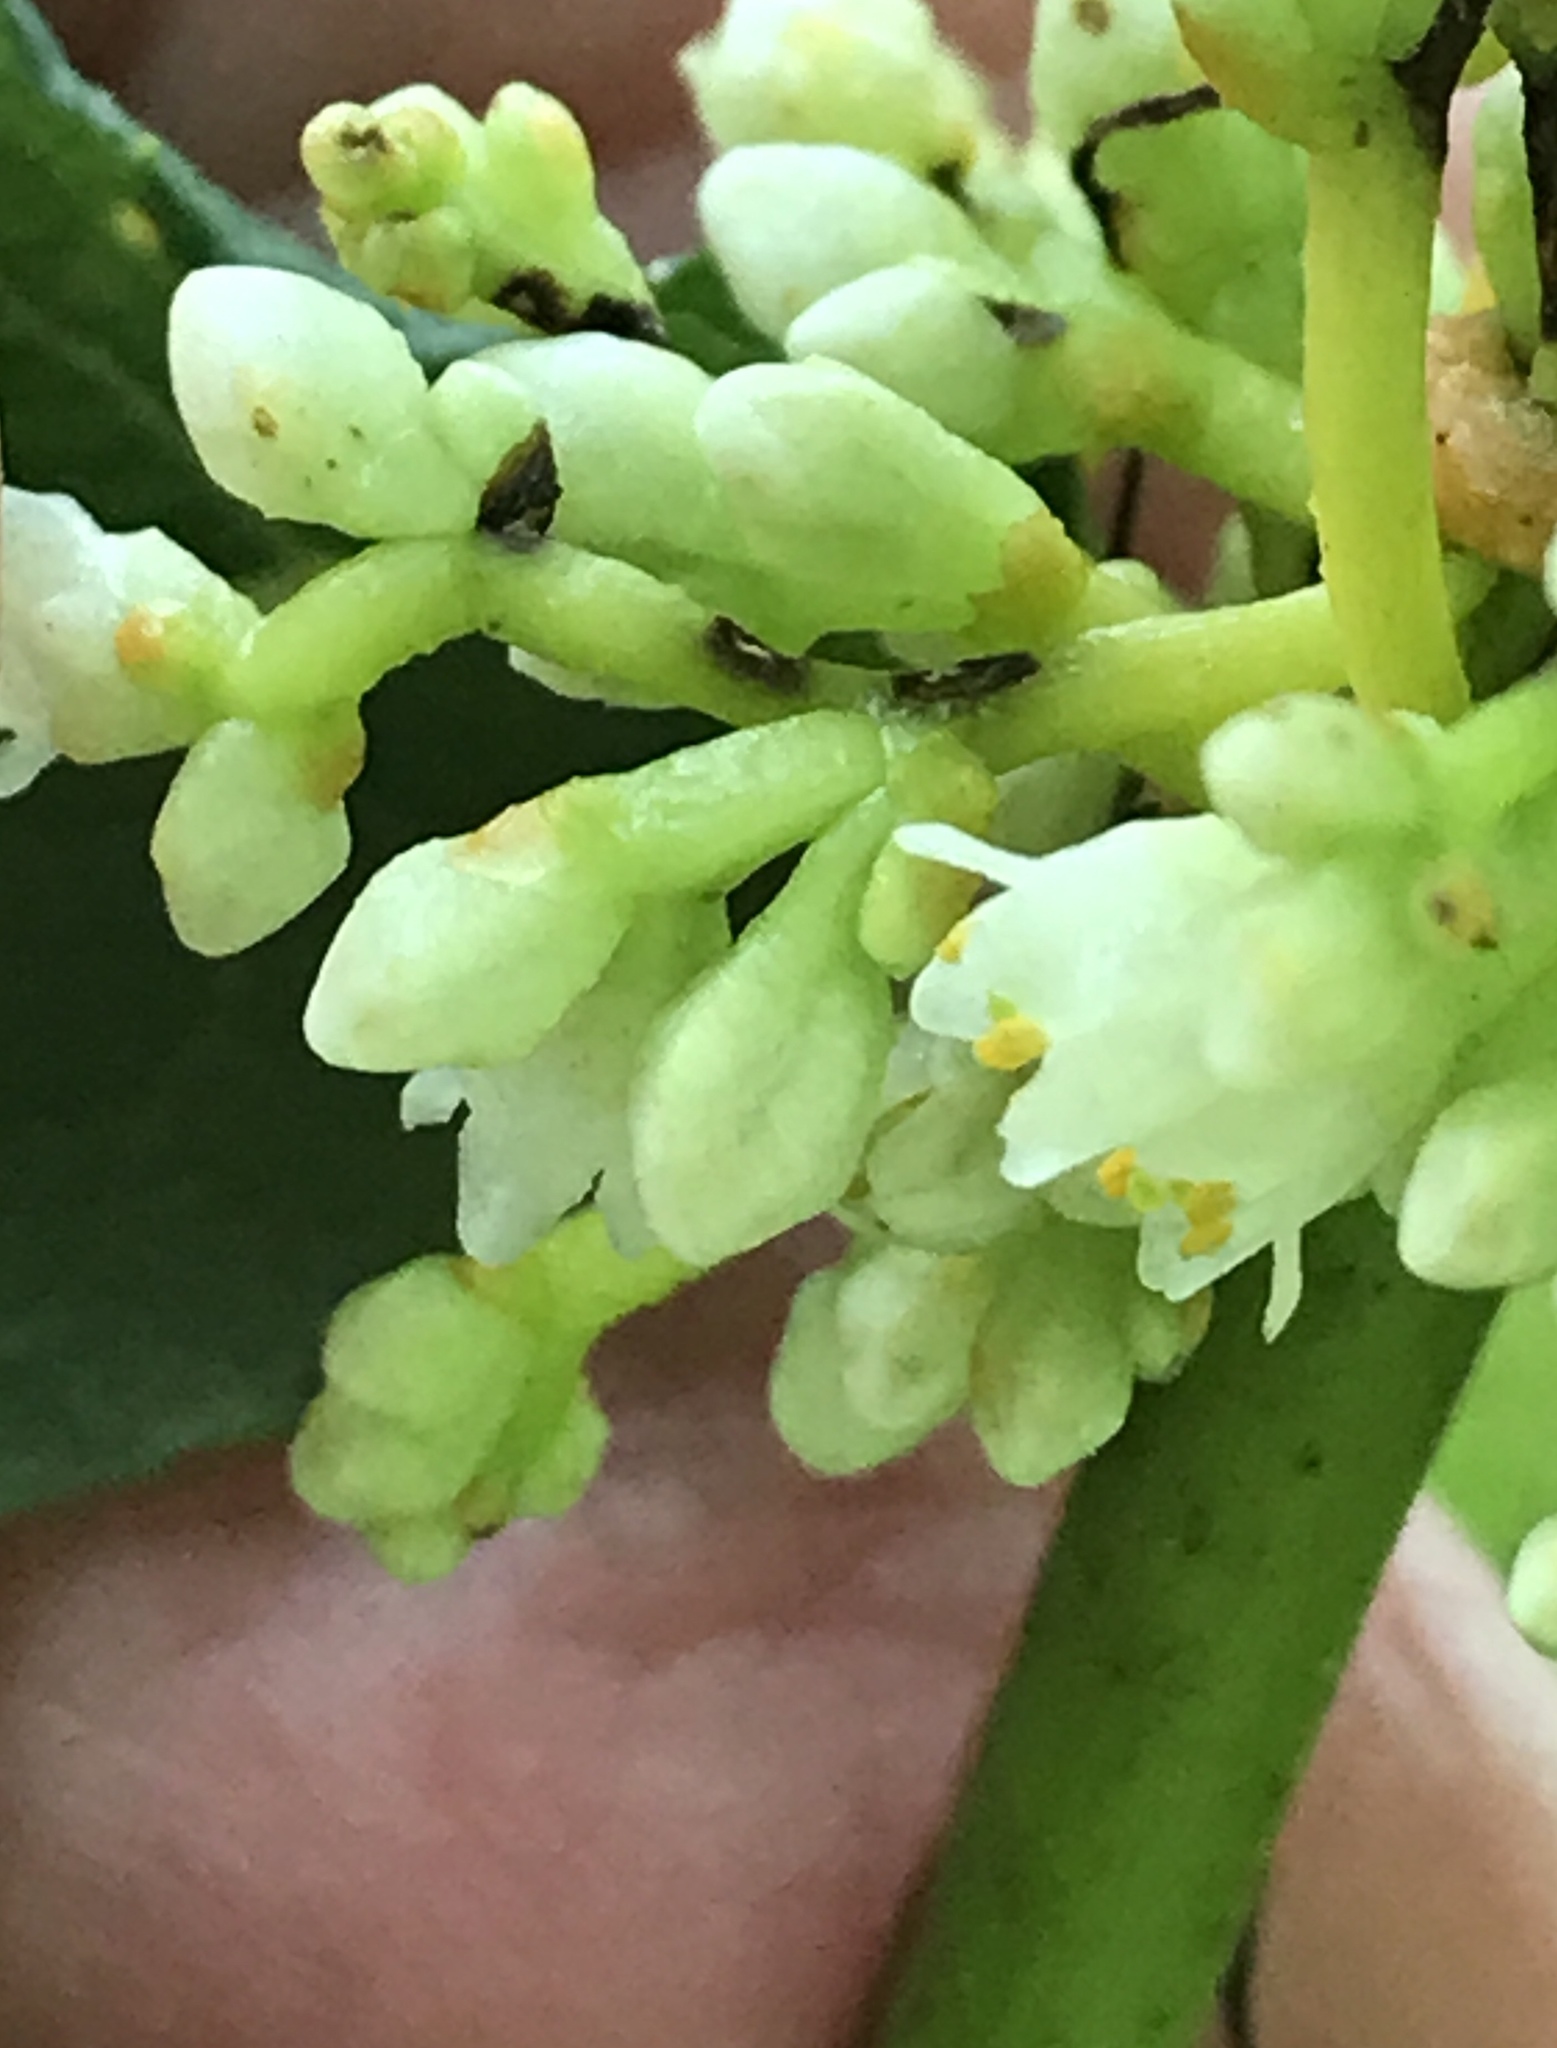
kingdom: Plantae
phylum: Tracheophyta
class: Magnoliopsida
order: Solanales
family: Convolvulaceae
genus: Cuscuta
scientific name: Cuscuta gronovii
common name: Common dodder
